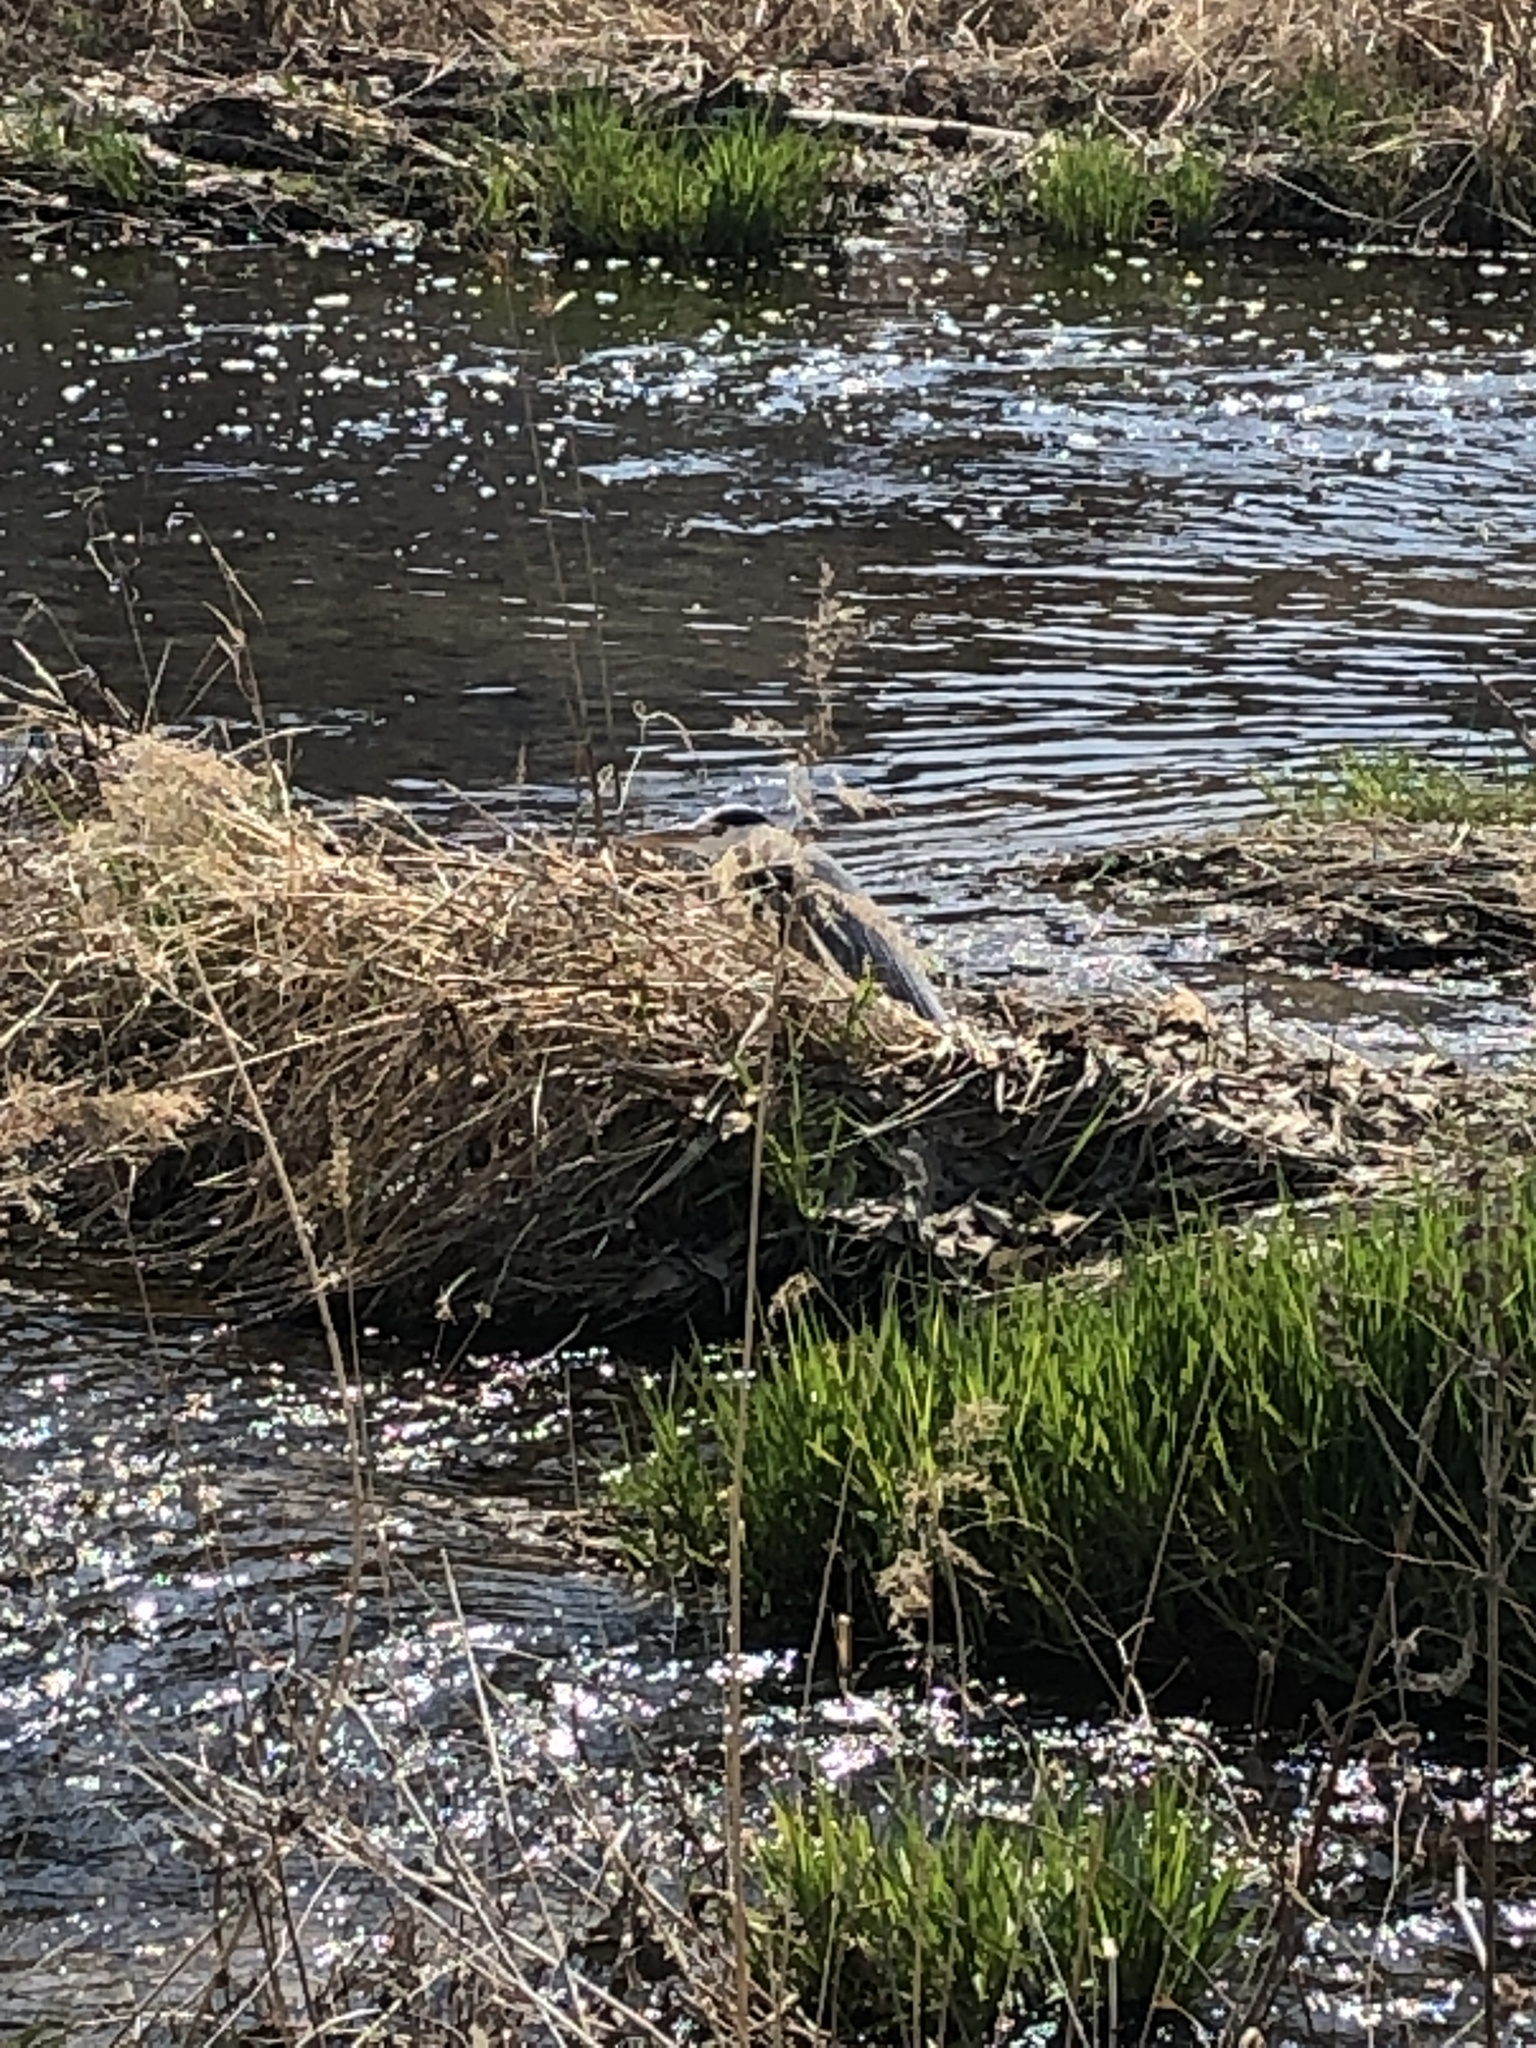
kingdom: Animalia
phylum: Chordata
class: Aves
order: Pelecaniformes
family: Ardeidae
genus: Ardea
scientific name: Ardea cinerea
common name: Grey heron
